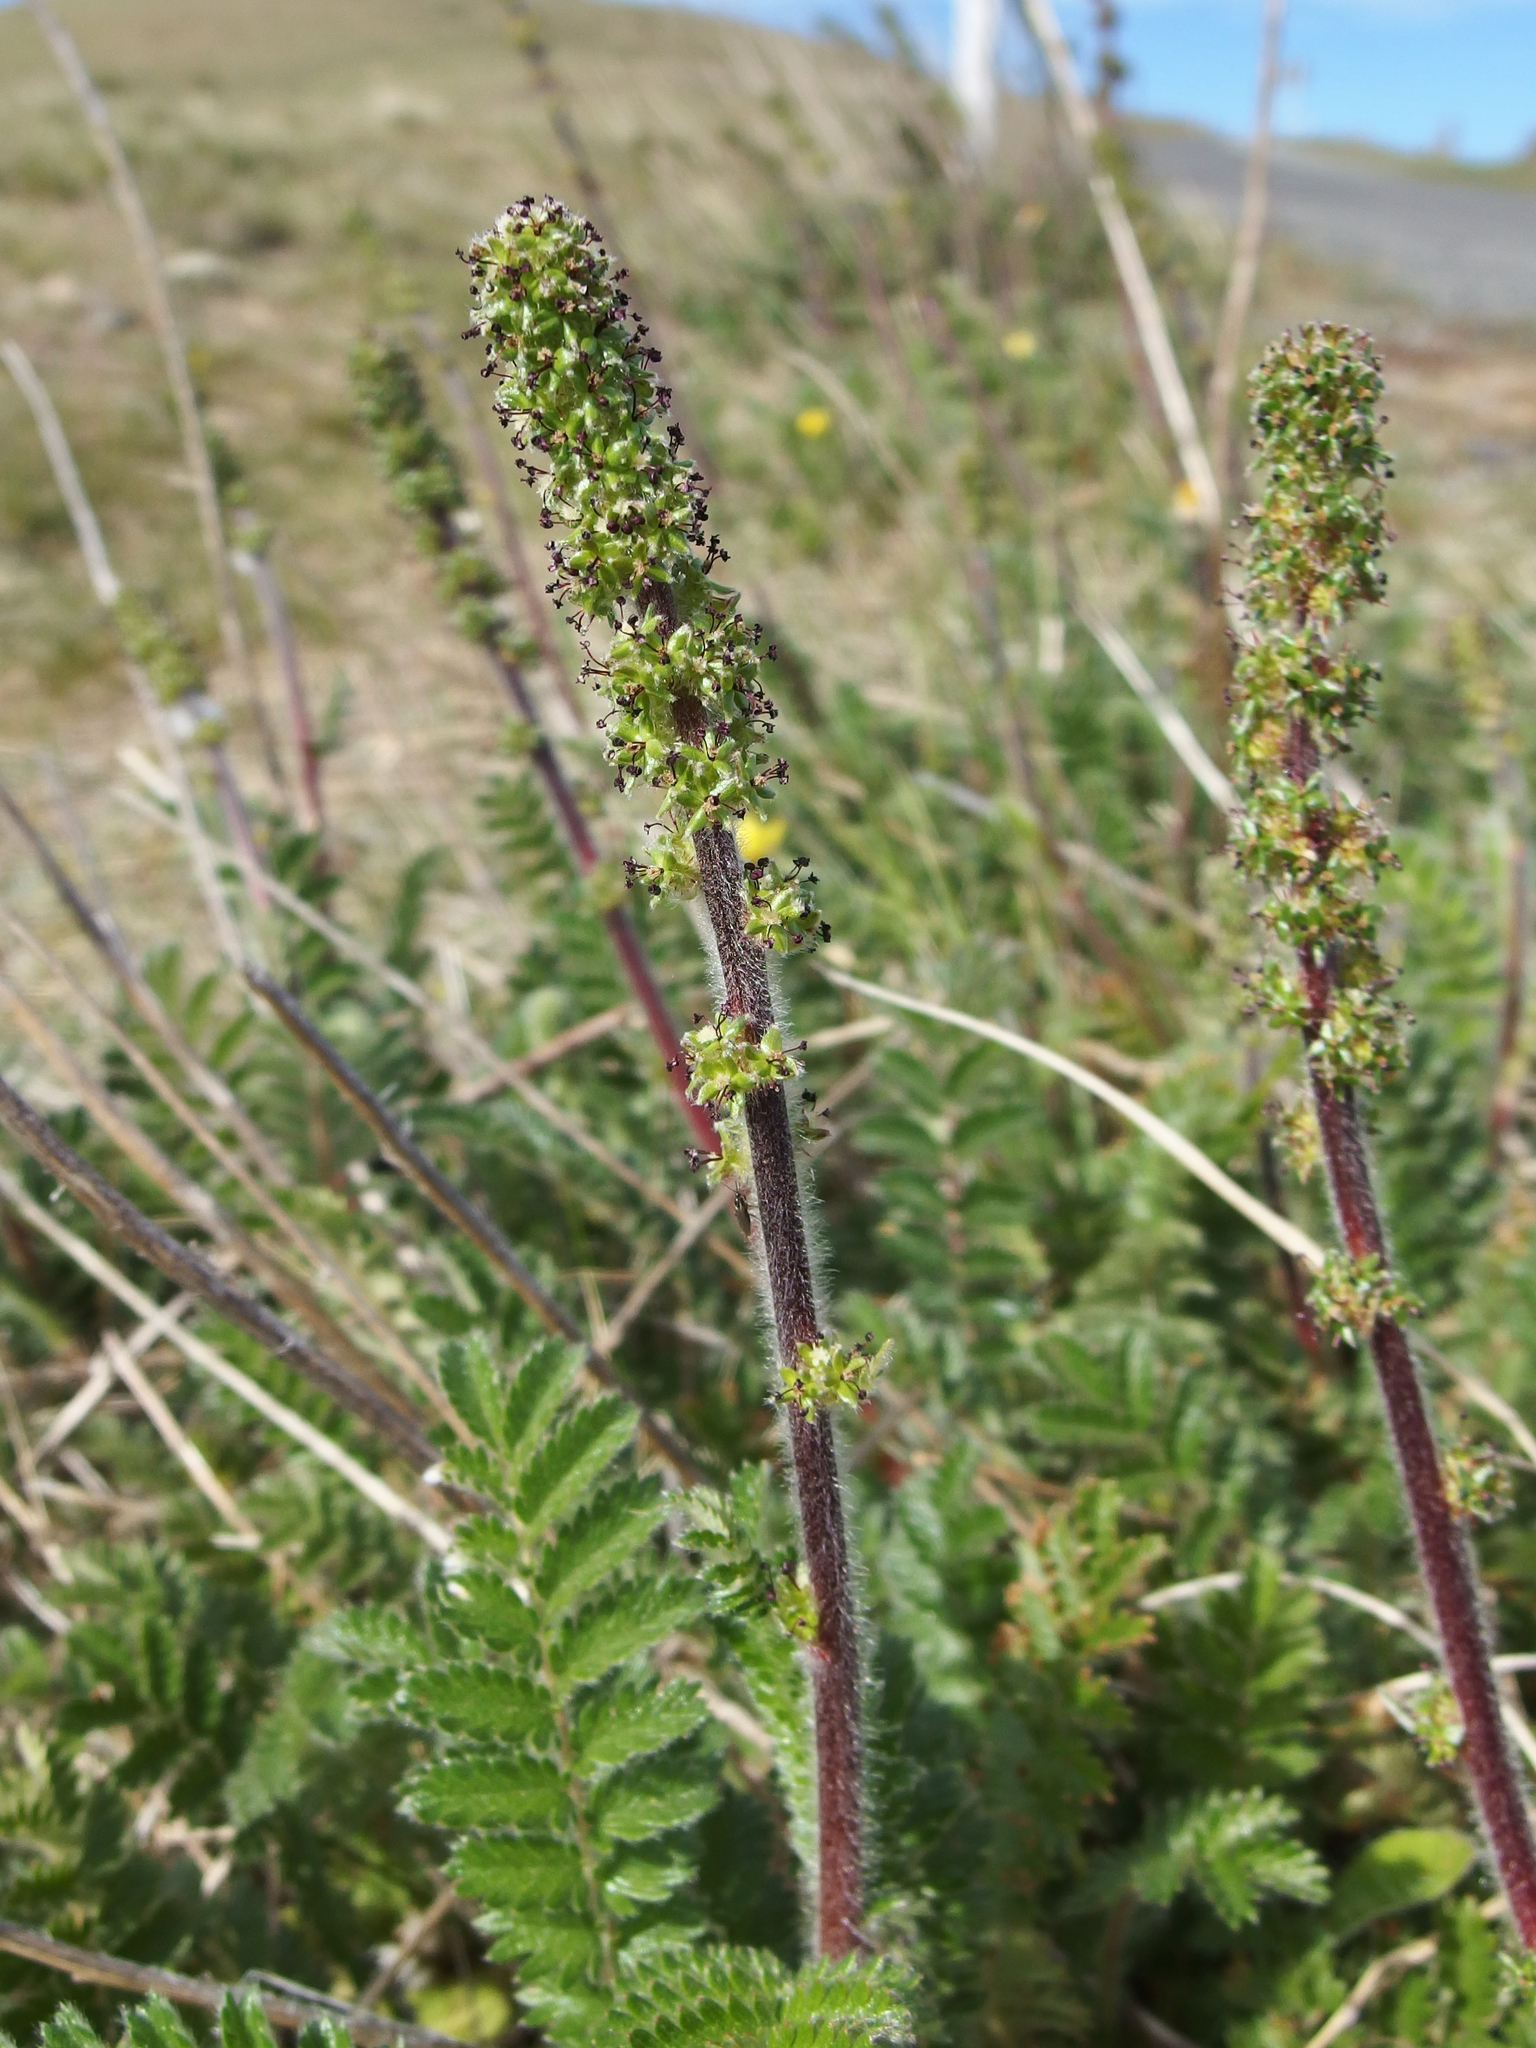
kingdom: Plantae
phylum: Tracheophyta
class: Magnoliopsida
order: Rosales
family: Rosaceae
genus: Acaena
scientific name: Acaena agnipila
